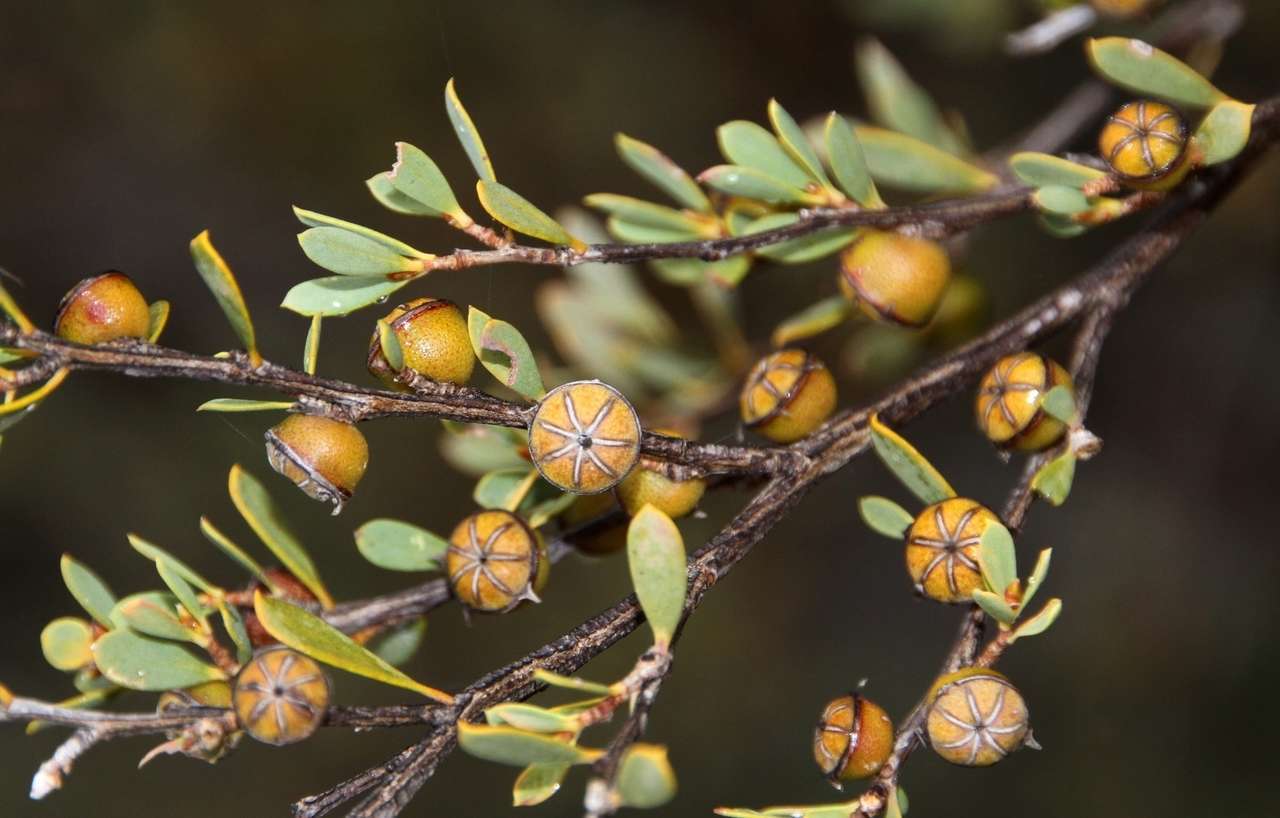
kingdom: Plantae
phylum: Tracheophyta
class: Magnoliopsida
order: Myrtales
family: Myrtaceae
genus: Leptospermum
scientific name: Leptospermum coriaceum
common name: Mallee teatree
